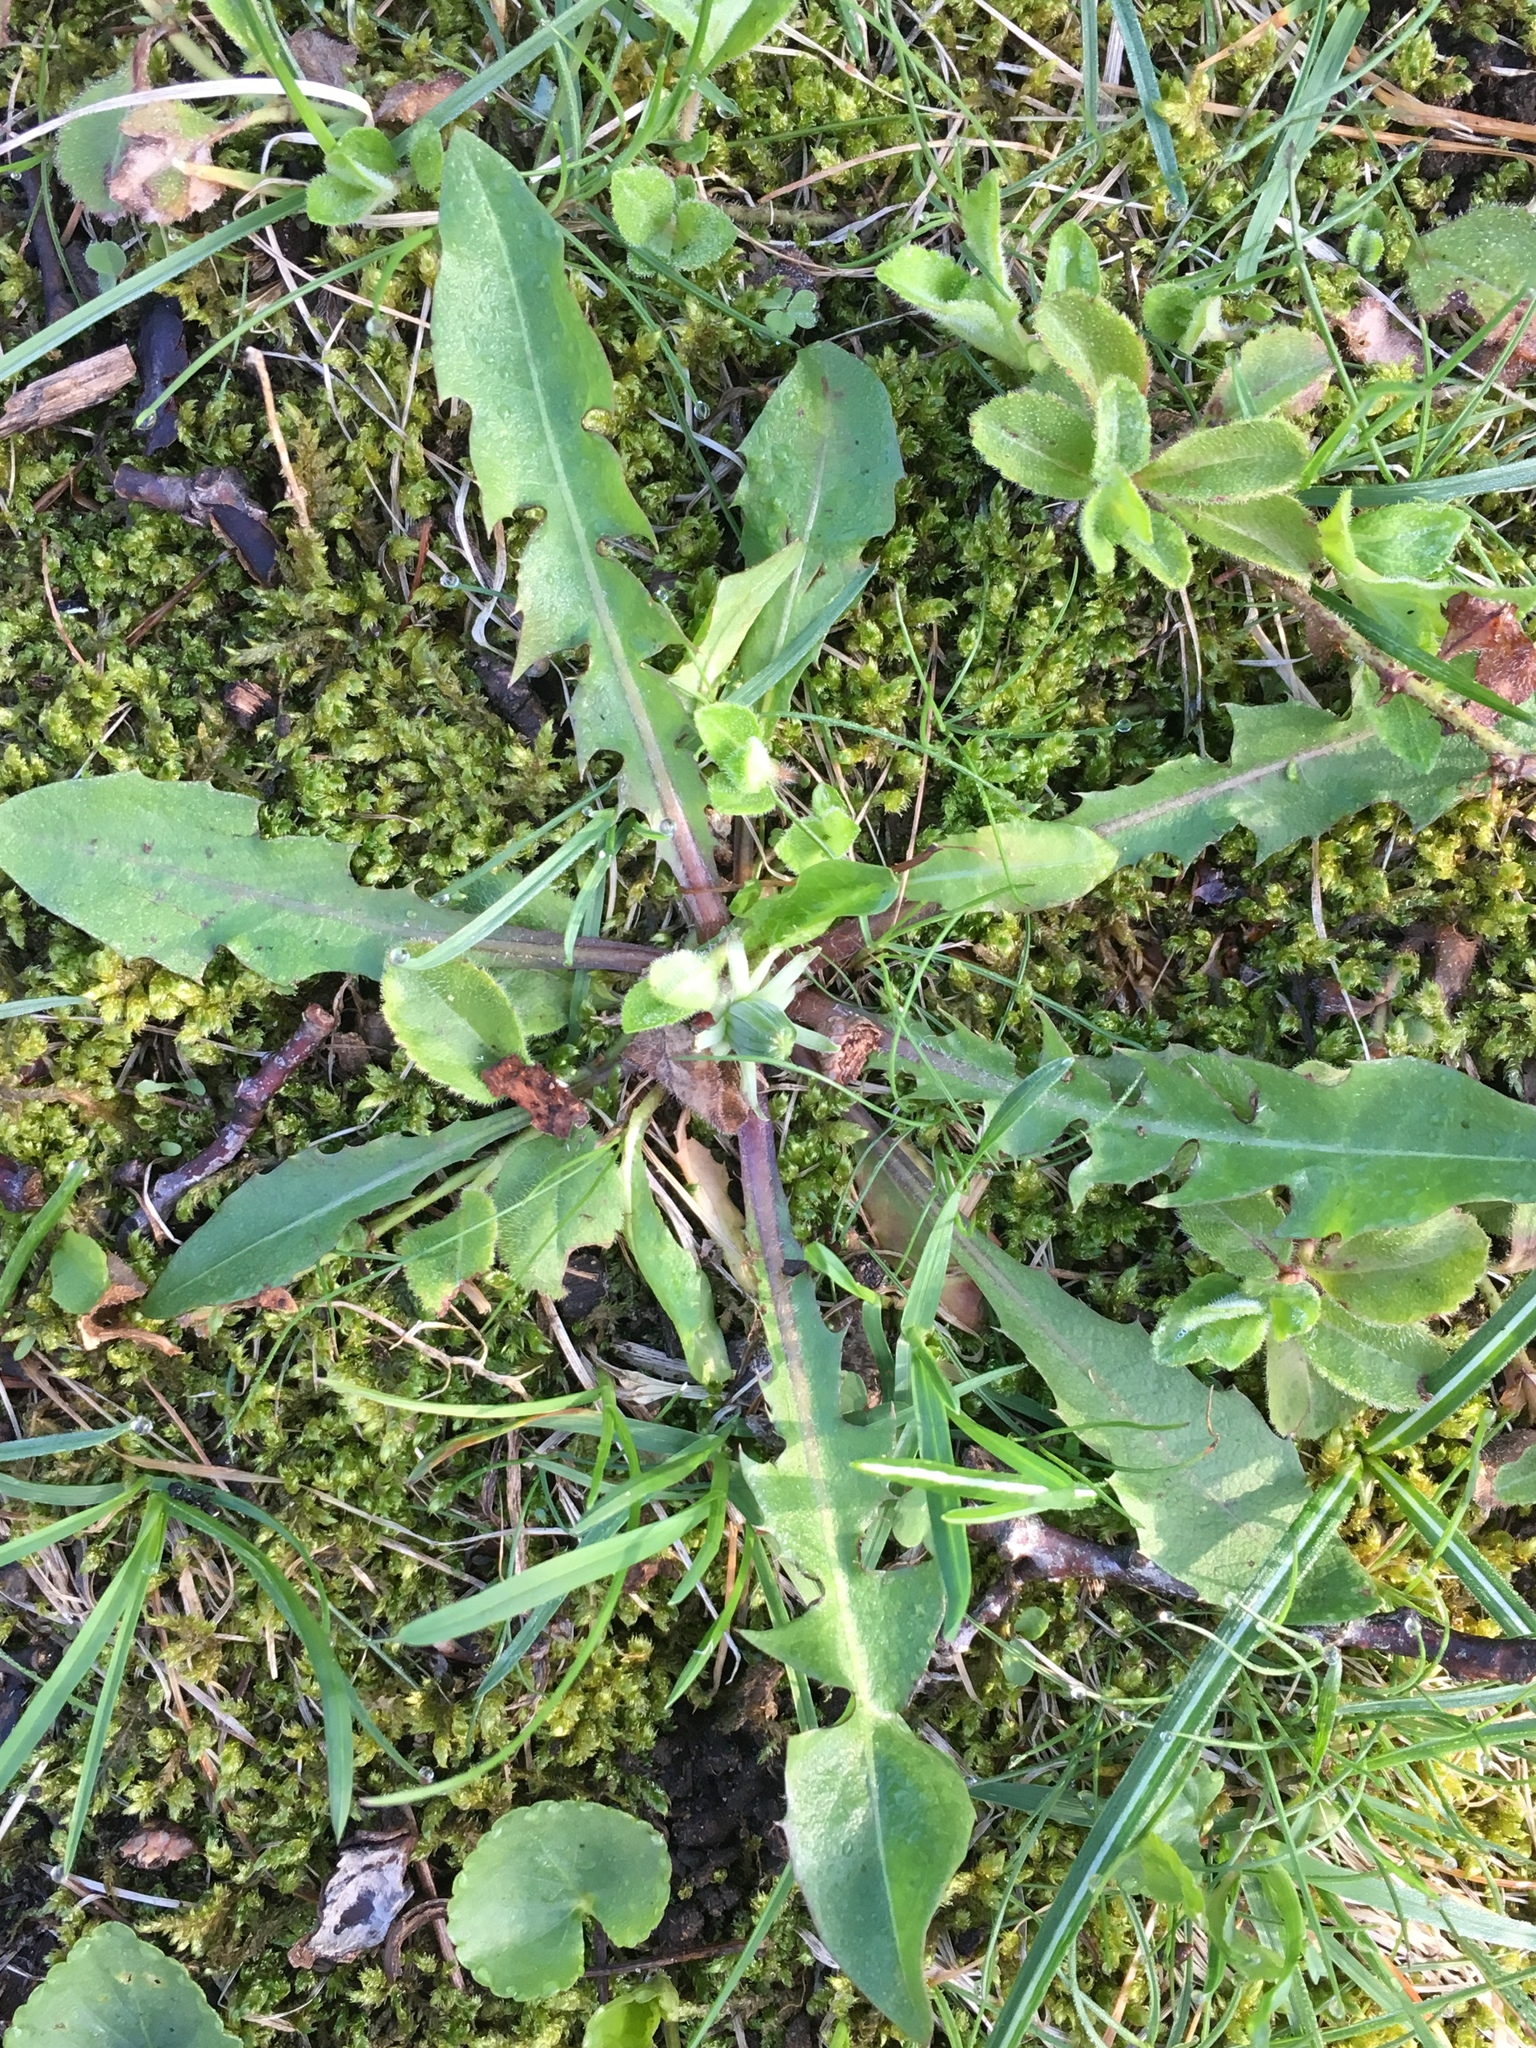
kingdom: Plantae
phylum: Tracheophyta
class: Magnoliopsida
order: Asterales
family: Asteraceae
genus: Taraxacum
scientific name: Taraxacum officinale
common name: Common dandelion
